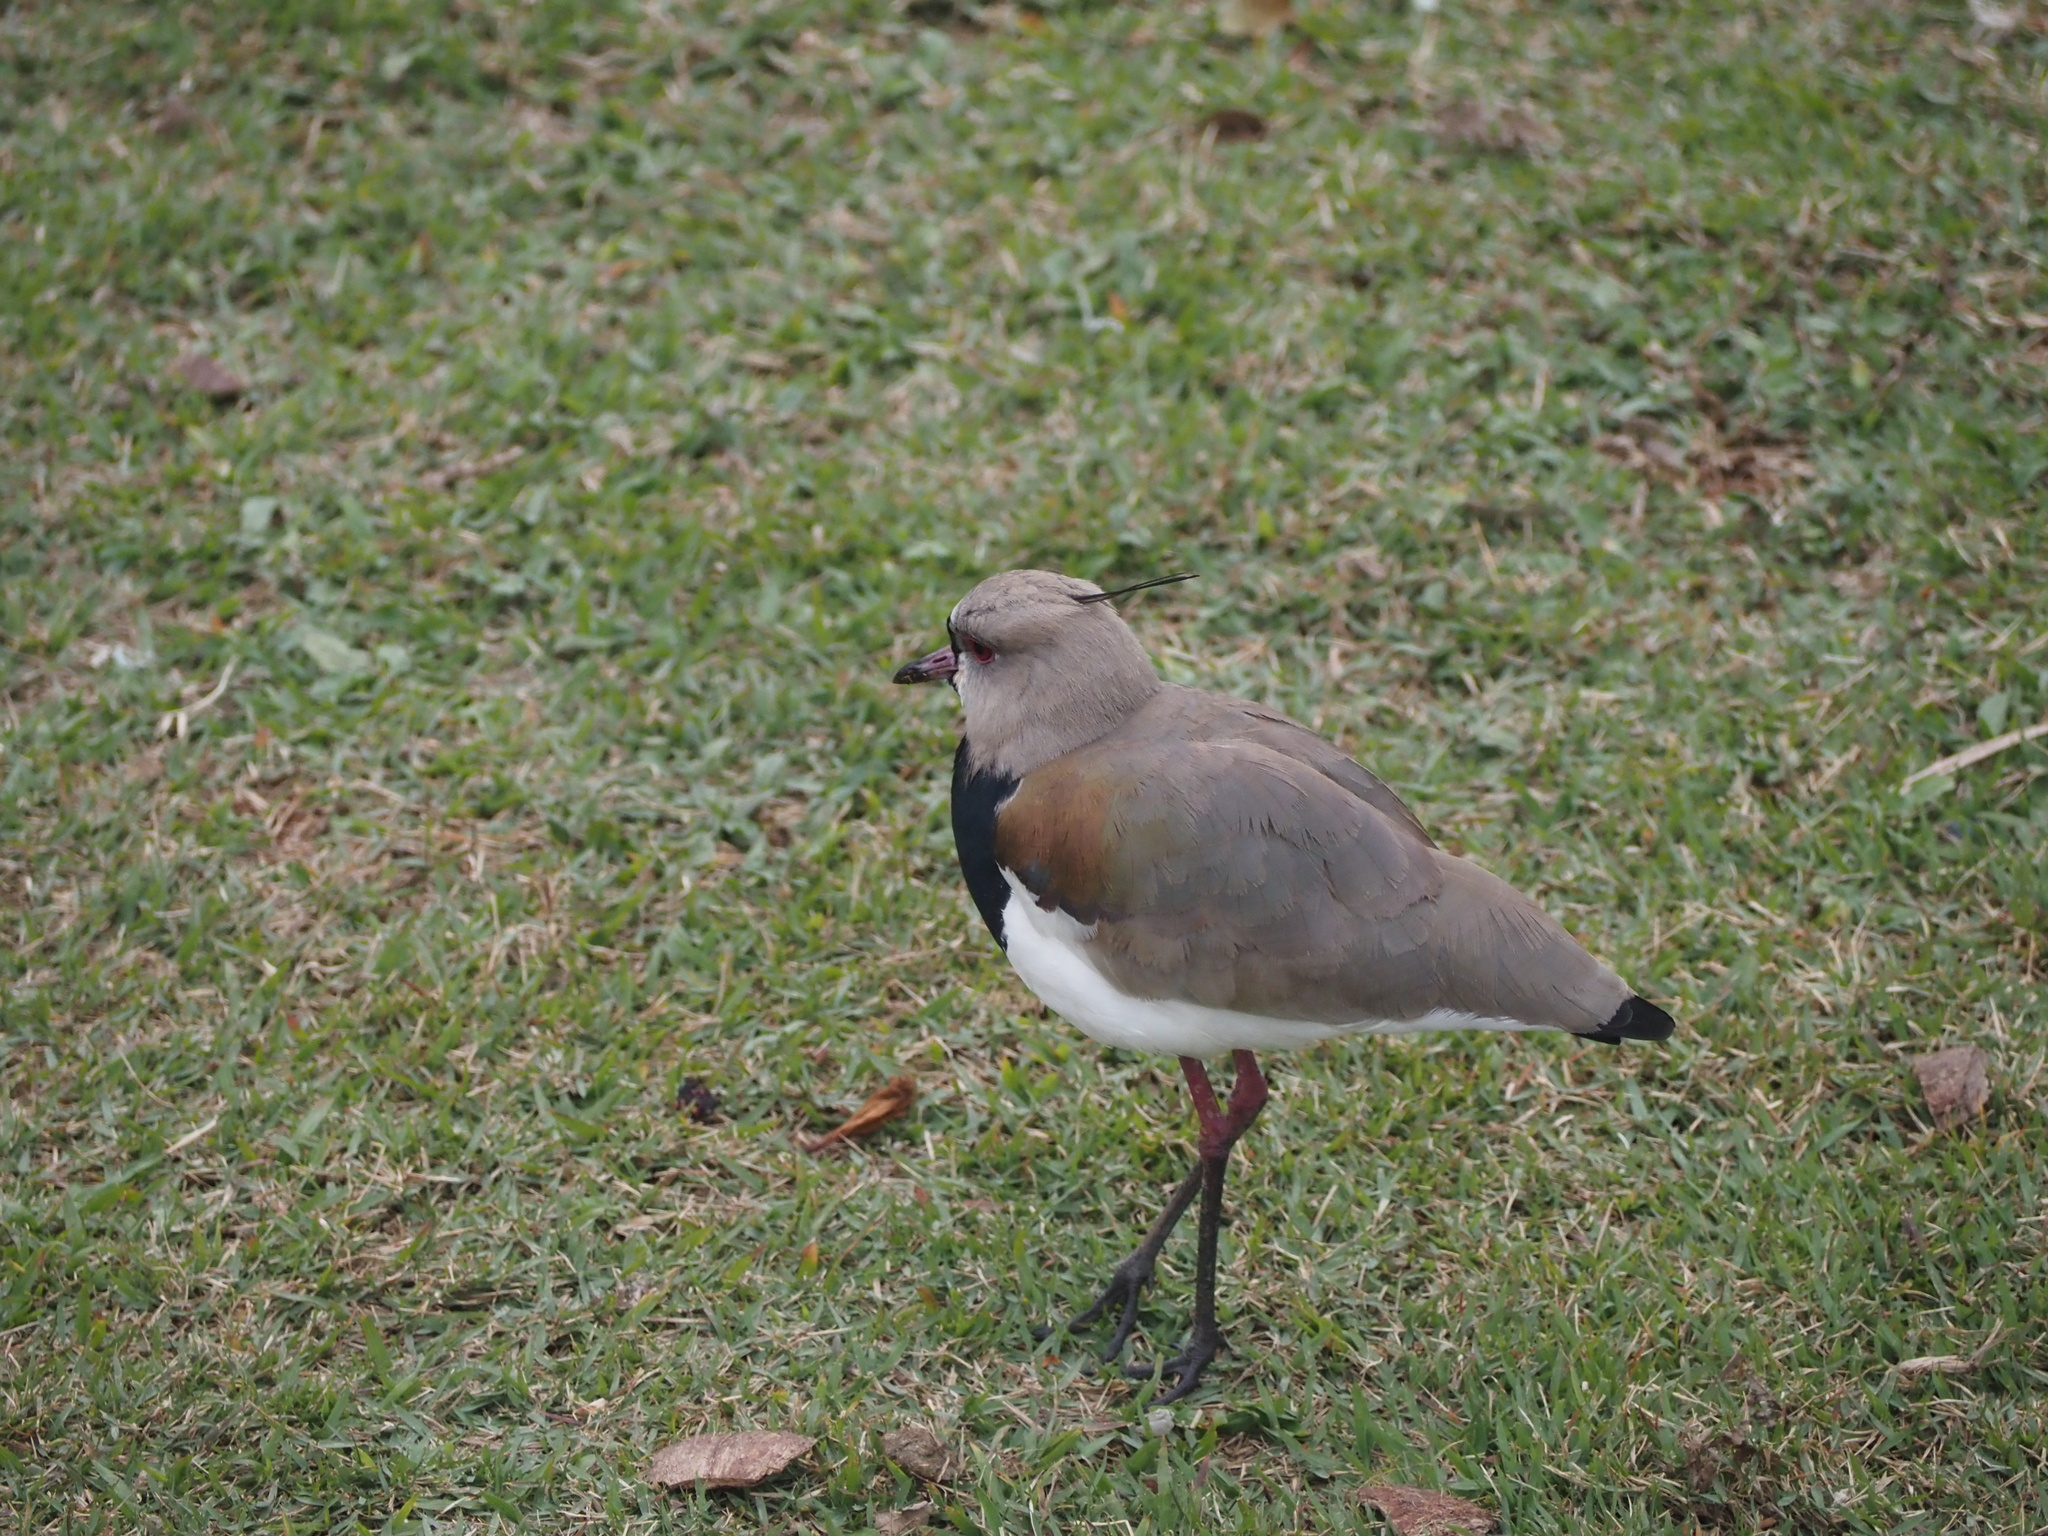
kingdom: Animalia
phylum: Chordata
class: Aves
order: Charadriiformes
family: Charadriidae
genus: Vanellus
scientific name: Vanellus chilensis
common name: Southern lapwing
